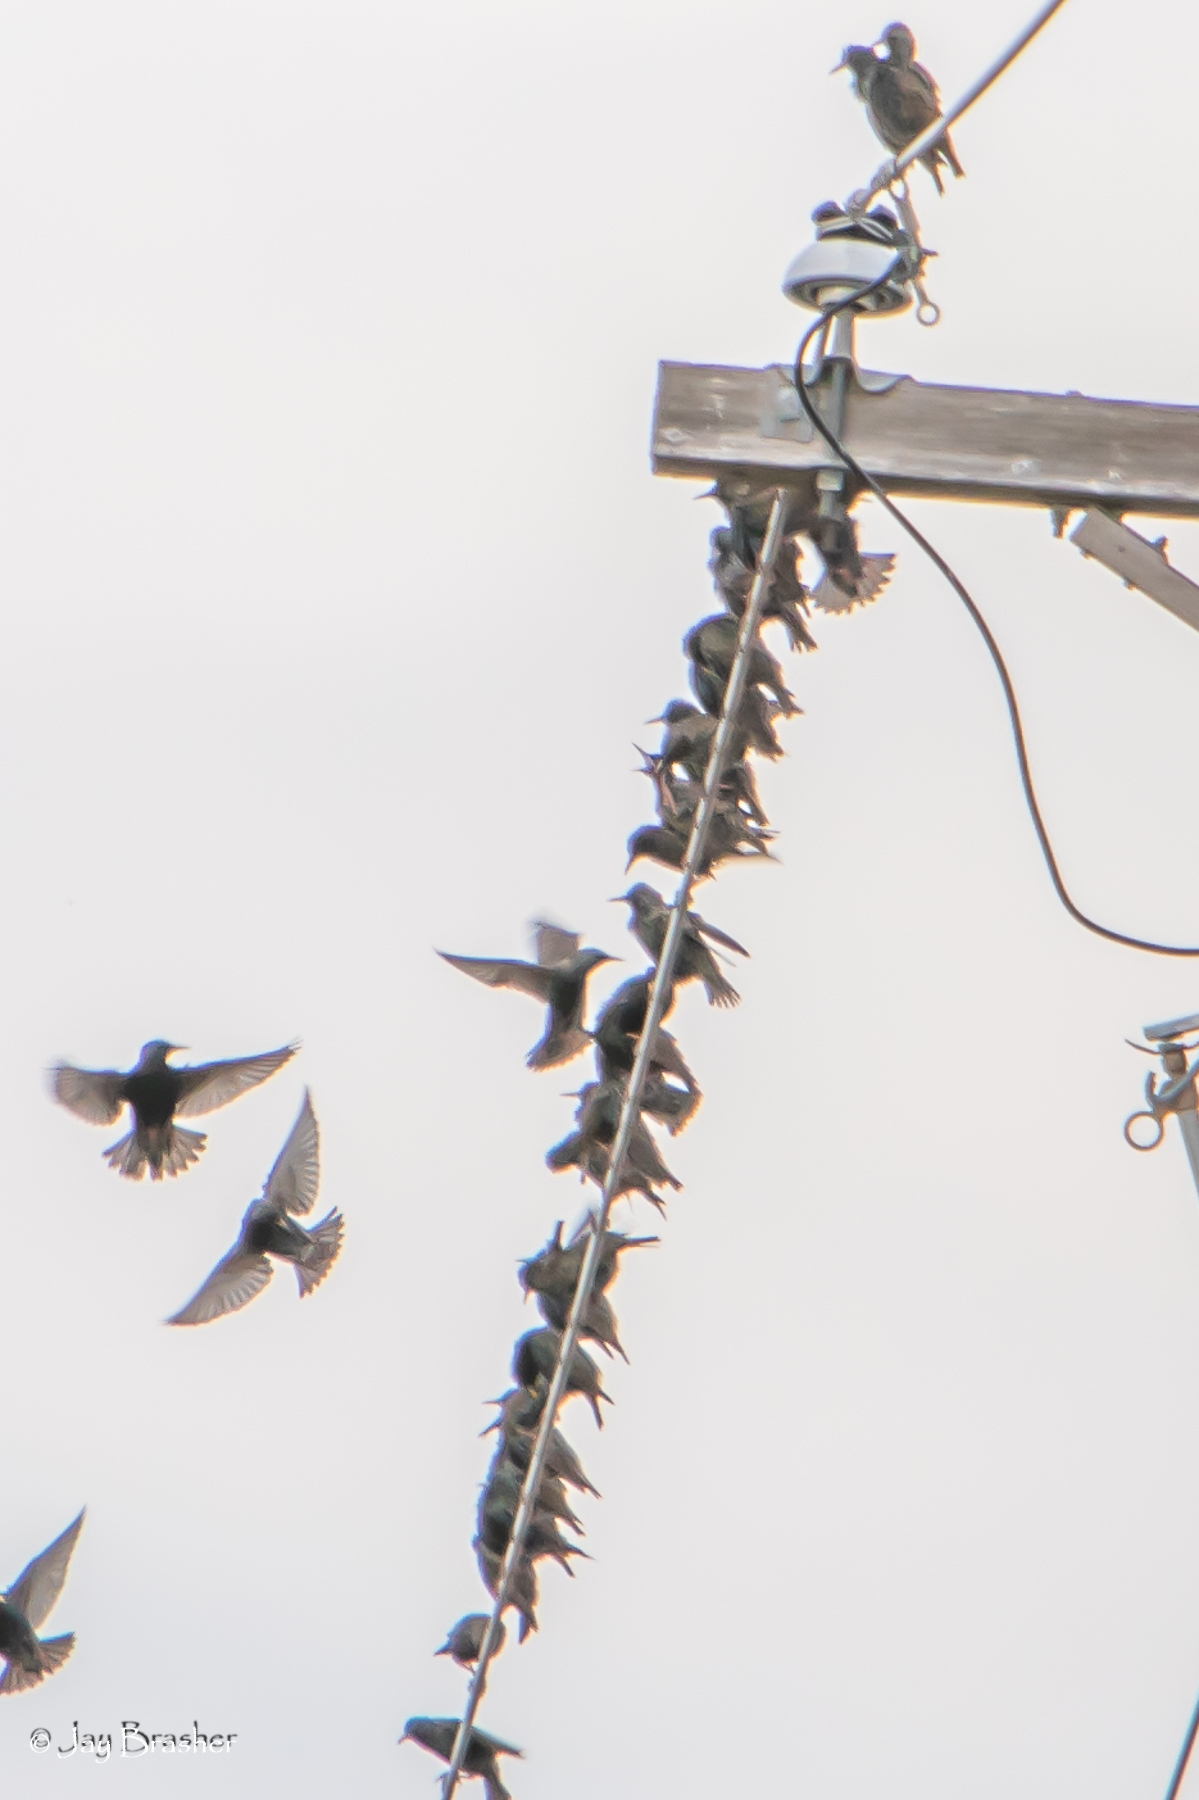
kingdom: Animalia
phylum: Chordata
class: Aves
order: Passeriformes
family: Sturnidae
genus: Sturnus
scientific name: Sturnus vulgaris
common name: Common starling
